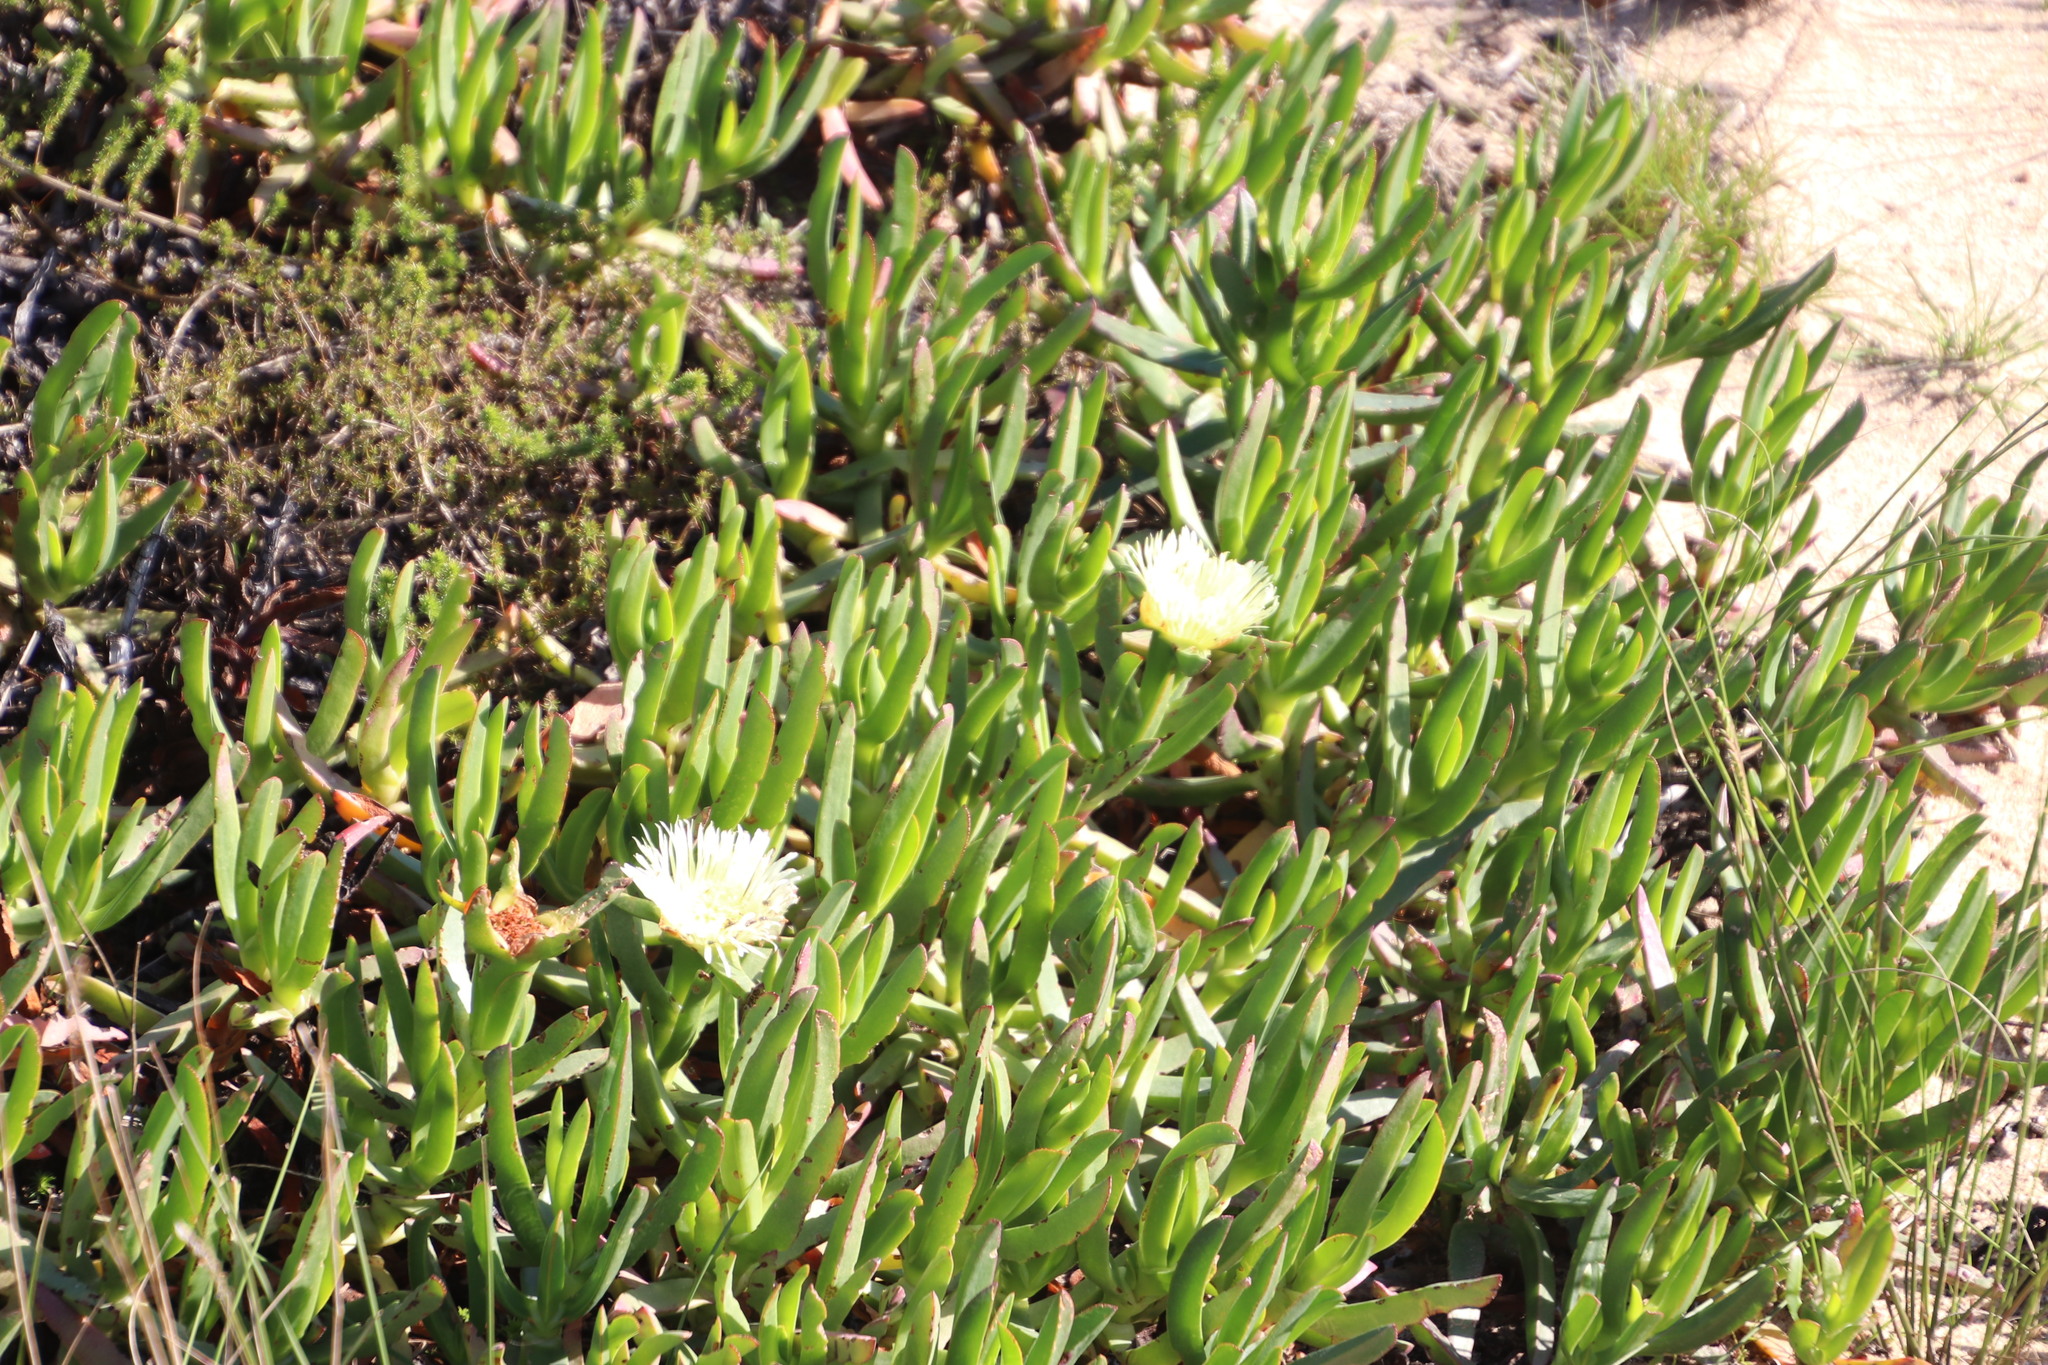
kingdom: Plantae
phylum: Tracheophyta
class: Magnoliopsida
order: Caryophyllales
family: Aizoaceae
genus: Carpobrotus
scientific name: Carpobrotus edulis
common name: Hottentot-fig
